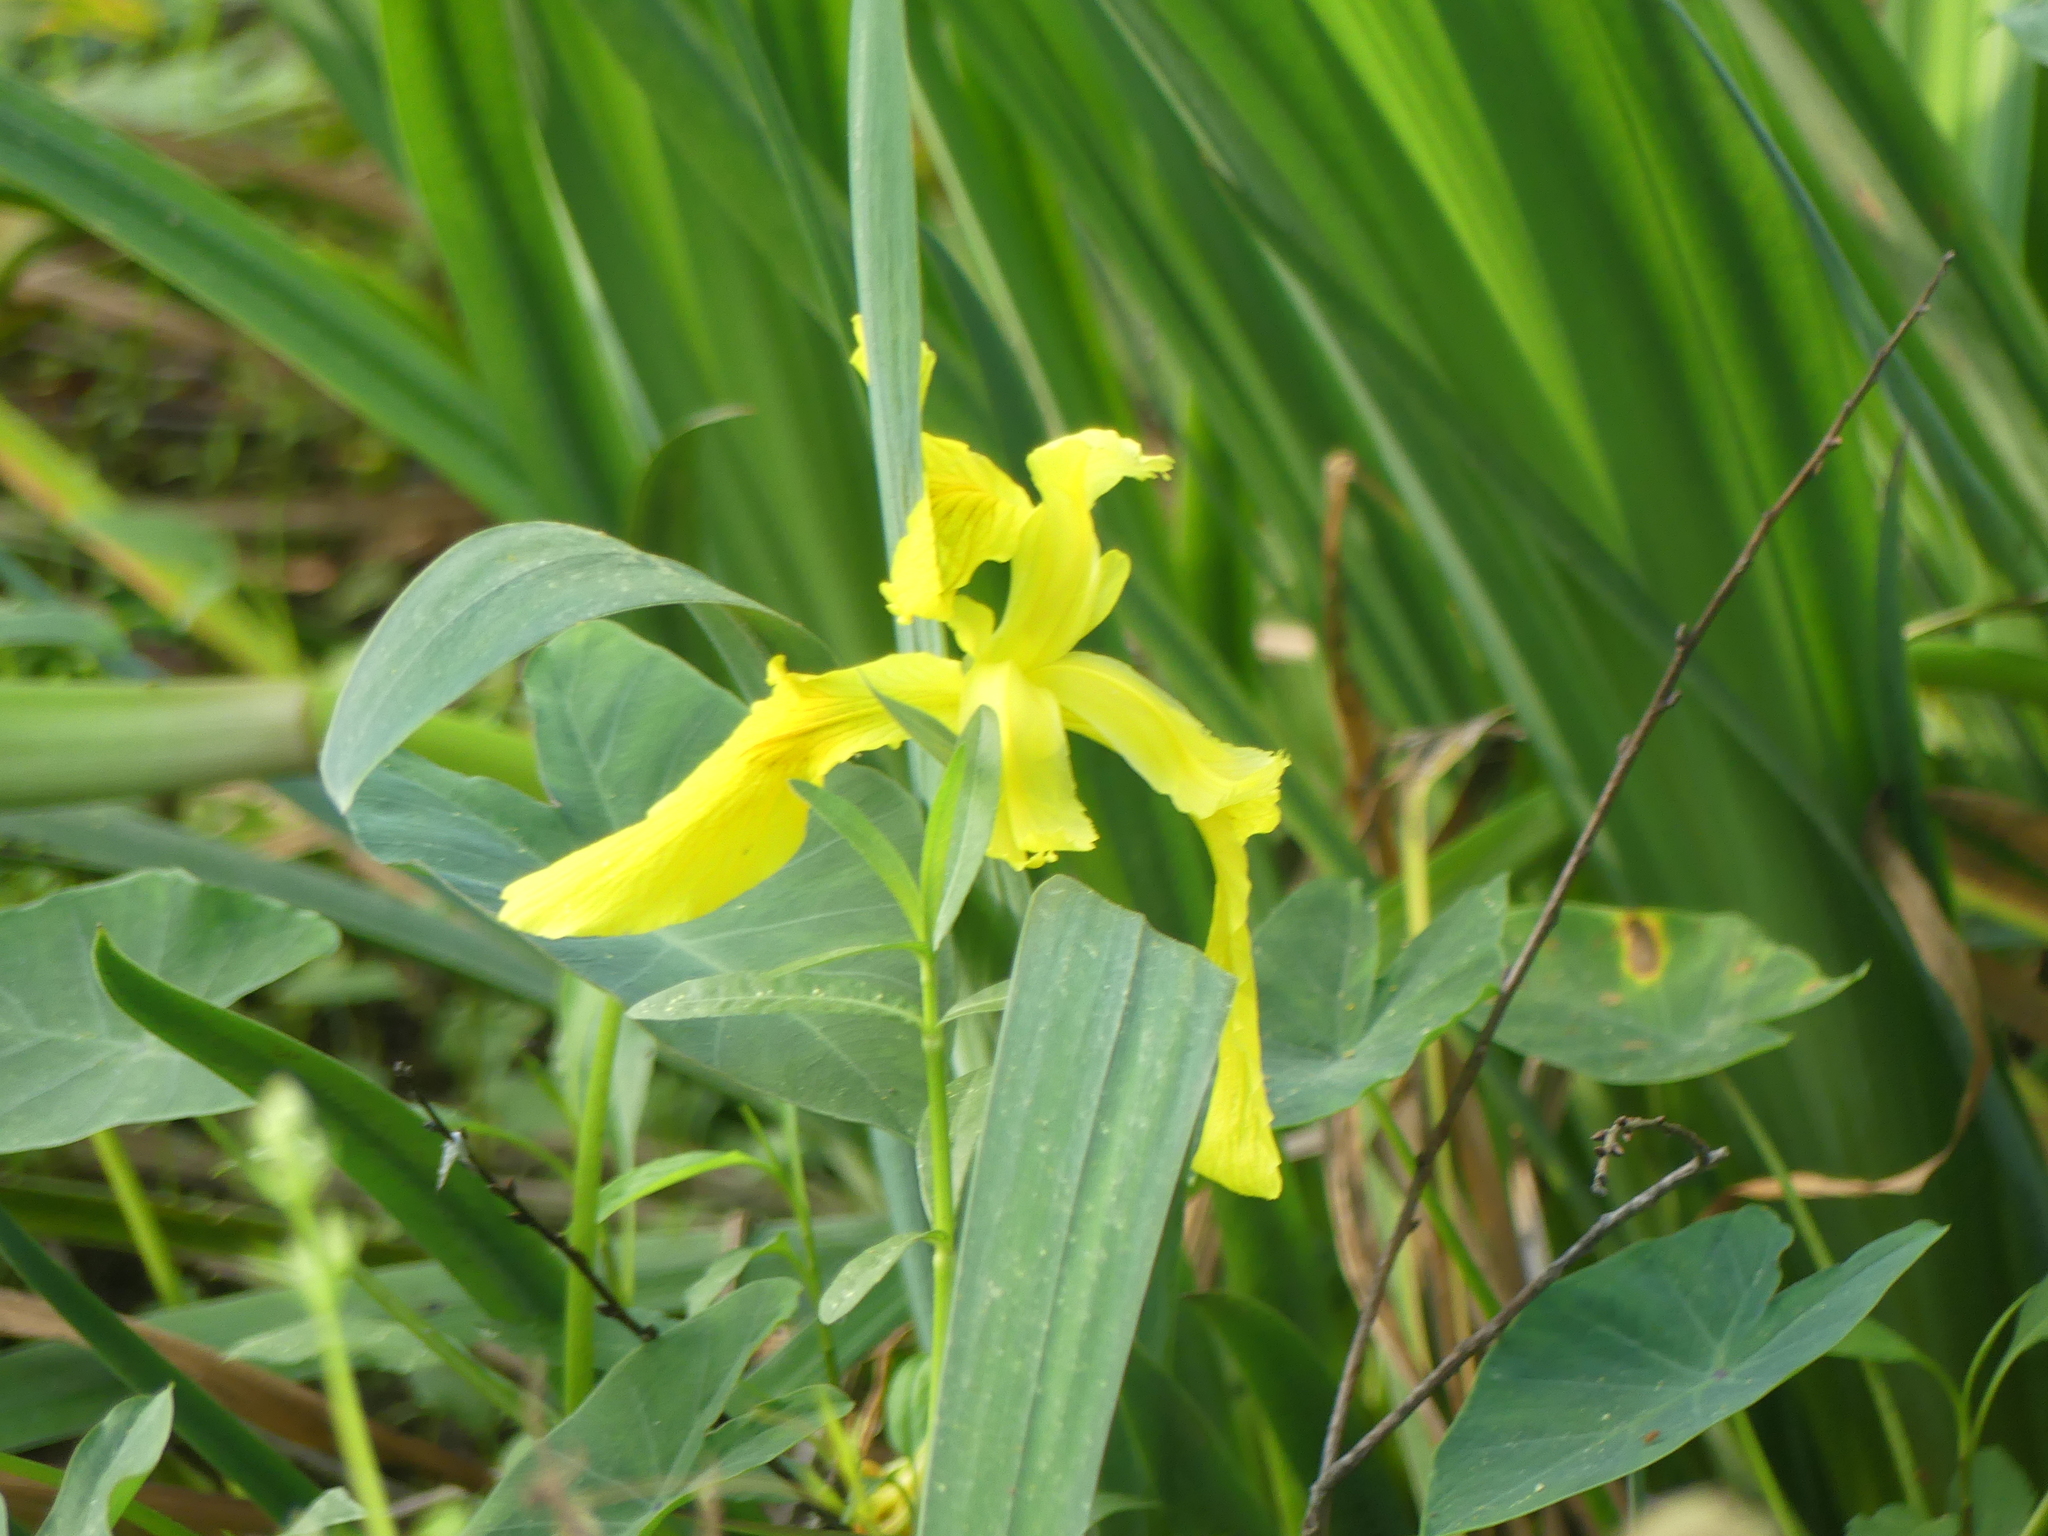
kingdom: Plantae
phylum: Tracheophyta
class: Liliopsida
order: Asparagales
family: Iridaceae
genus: Iris
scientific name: Iris pseudacorus
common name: Yellow flag
